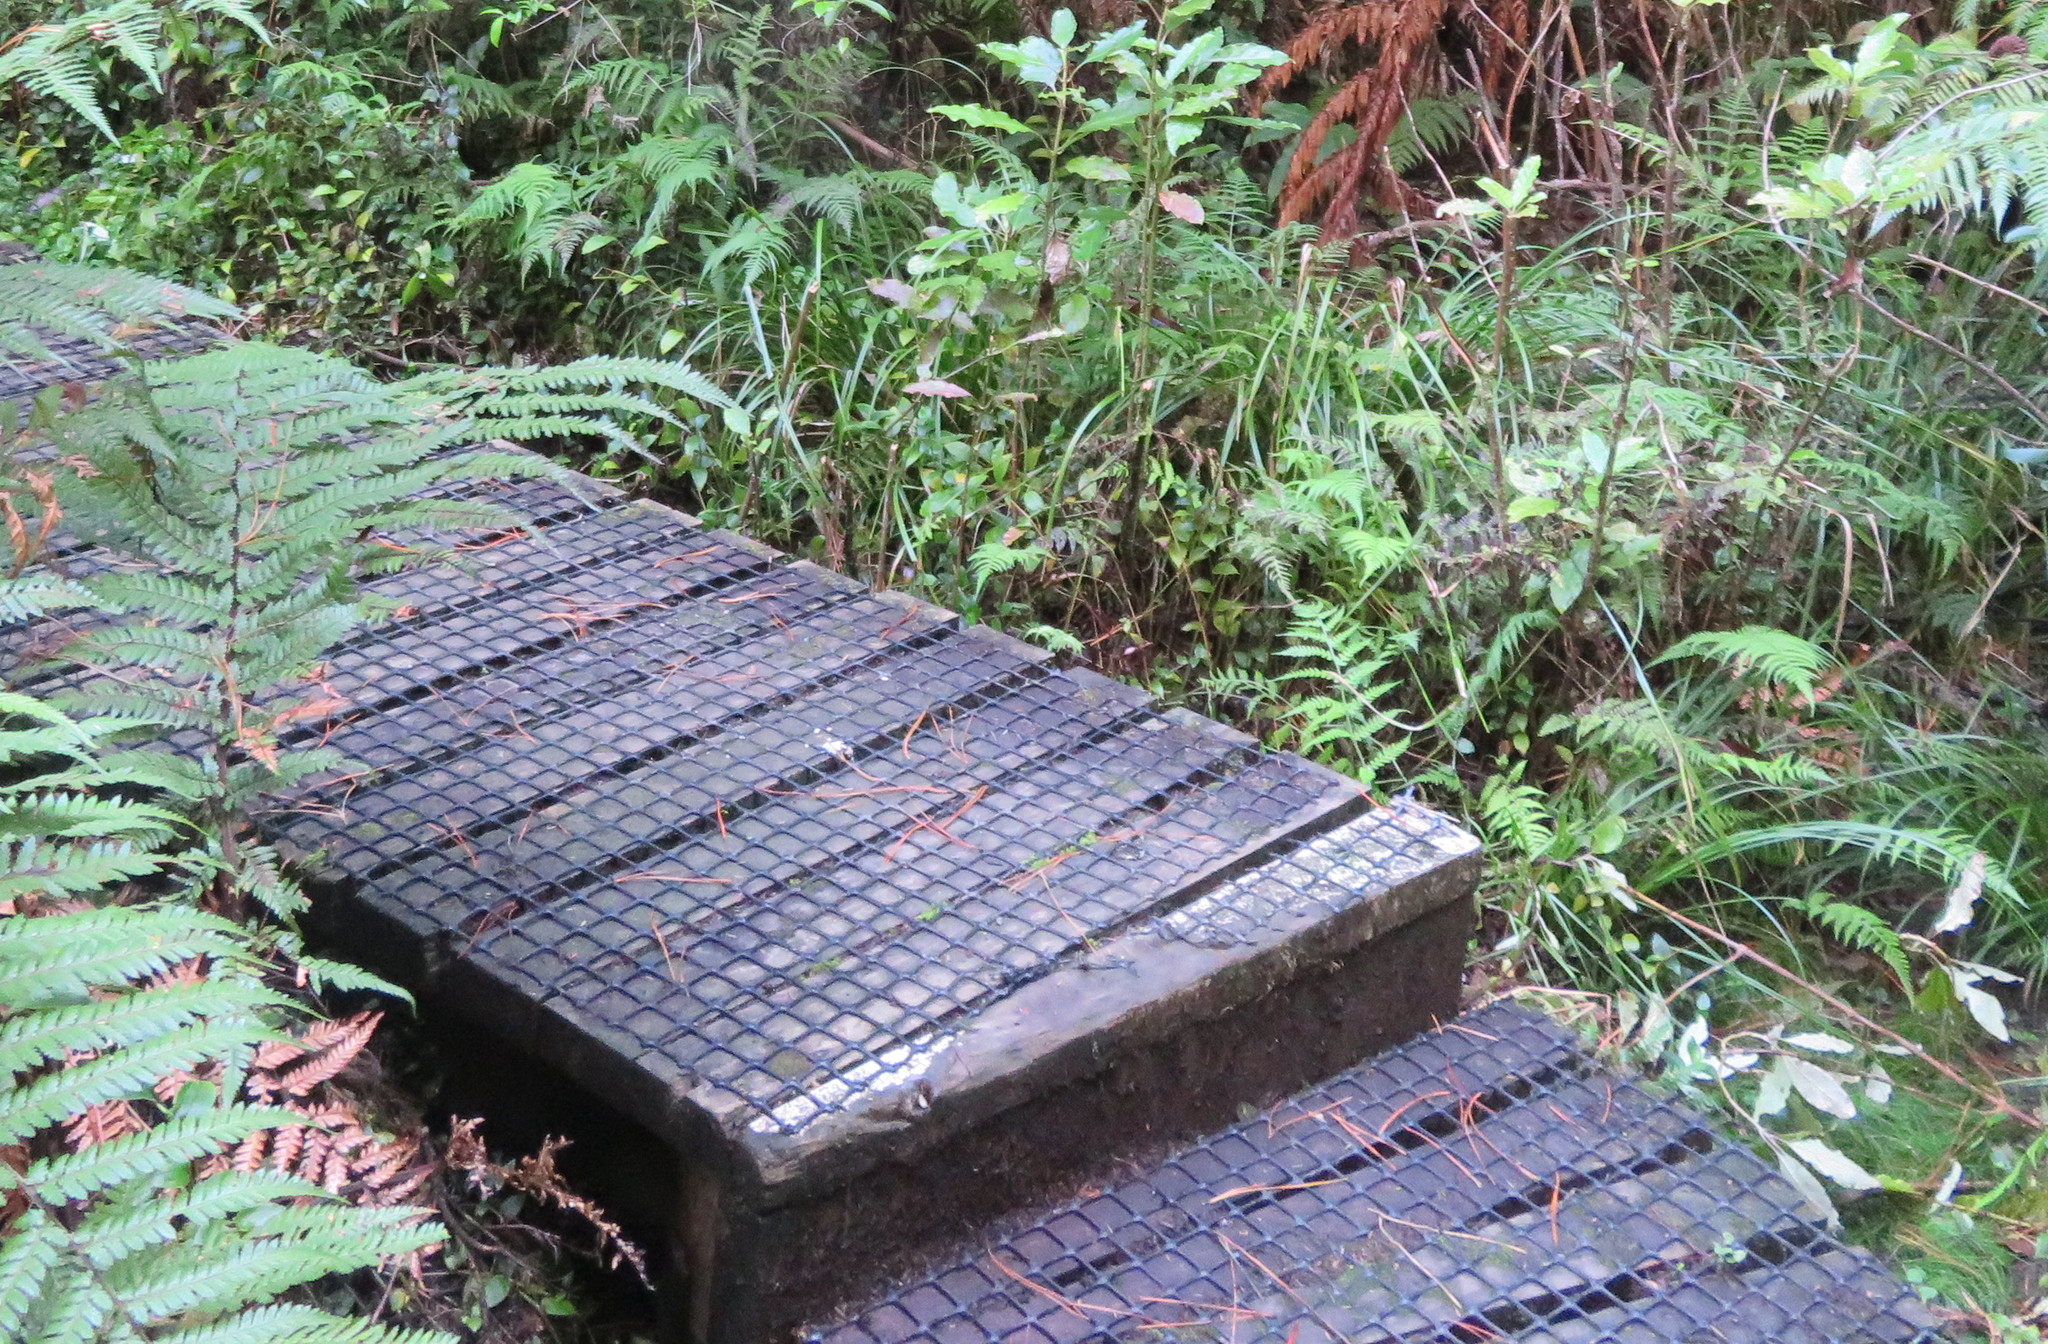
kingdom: Plantae
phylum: Tracheophyta
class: Polypodiopsida
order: Cyatheales
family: Dicksoniaceae
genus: Dicksonia
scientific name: Dicksonia squarrosa
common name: Hard treefern
